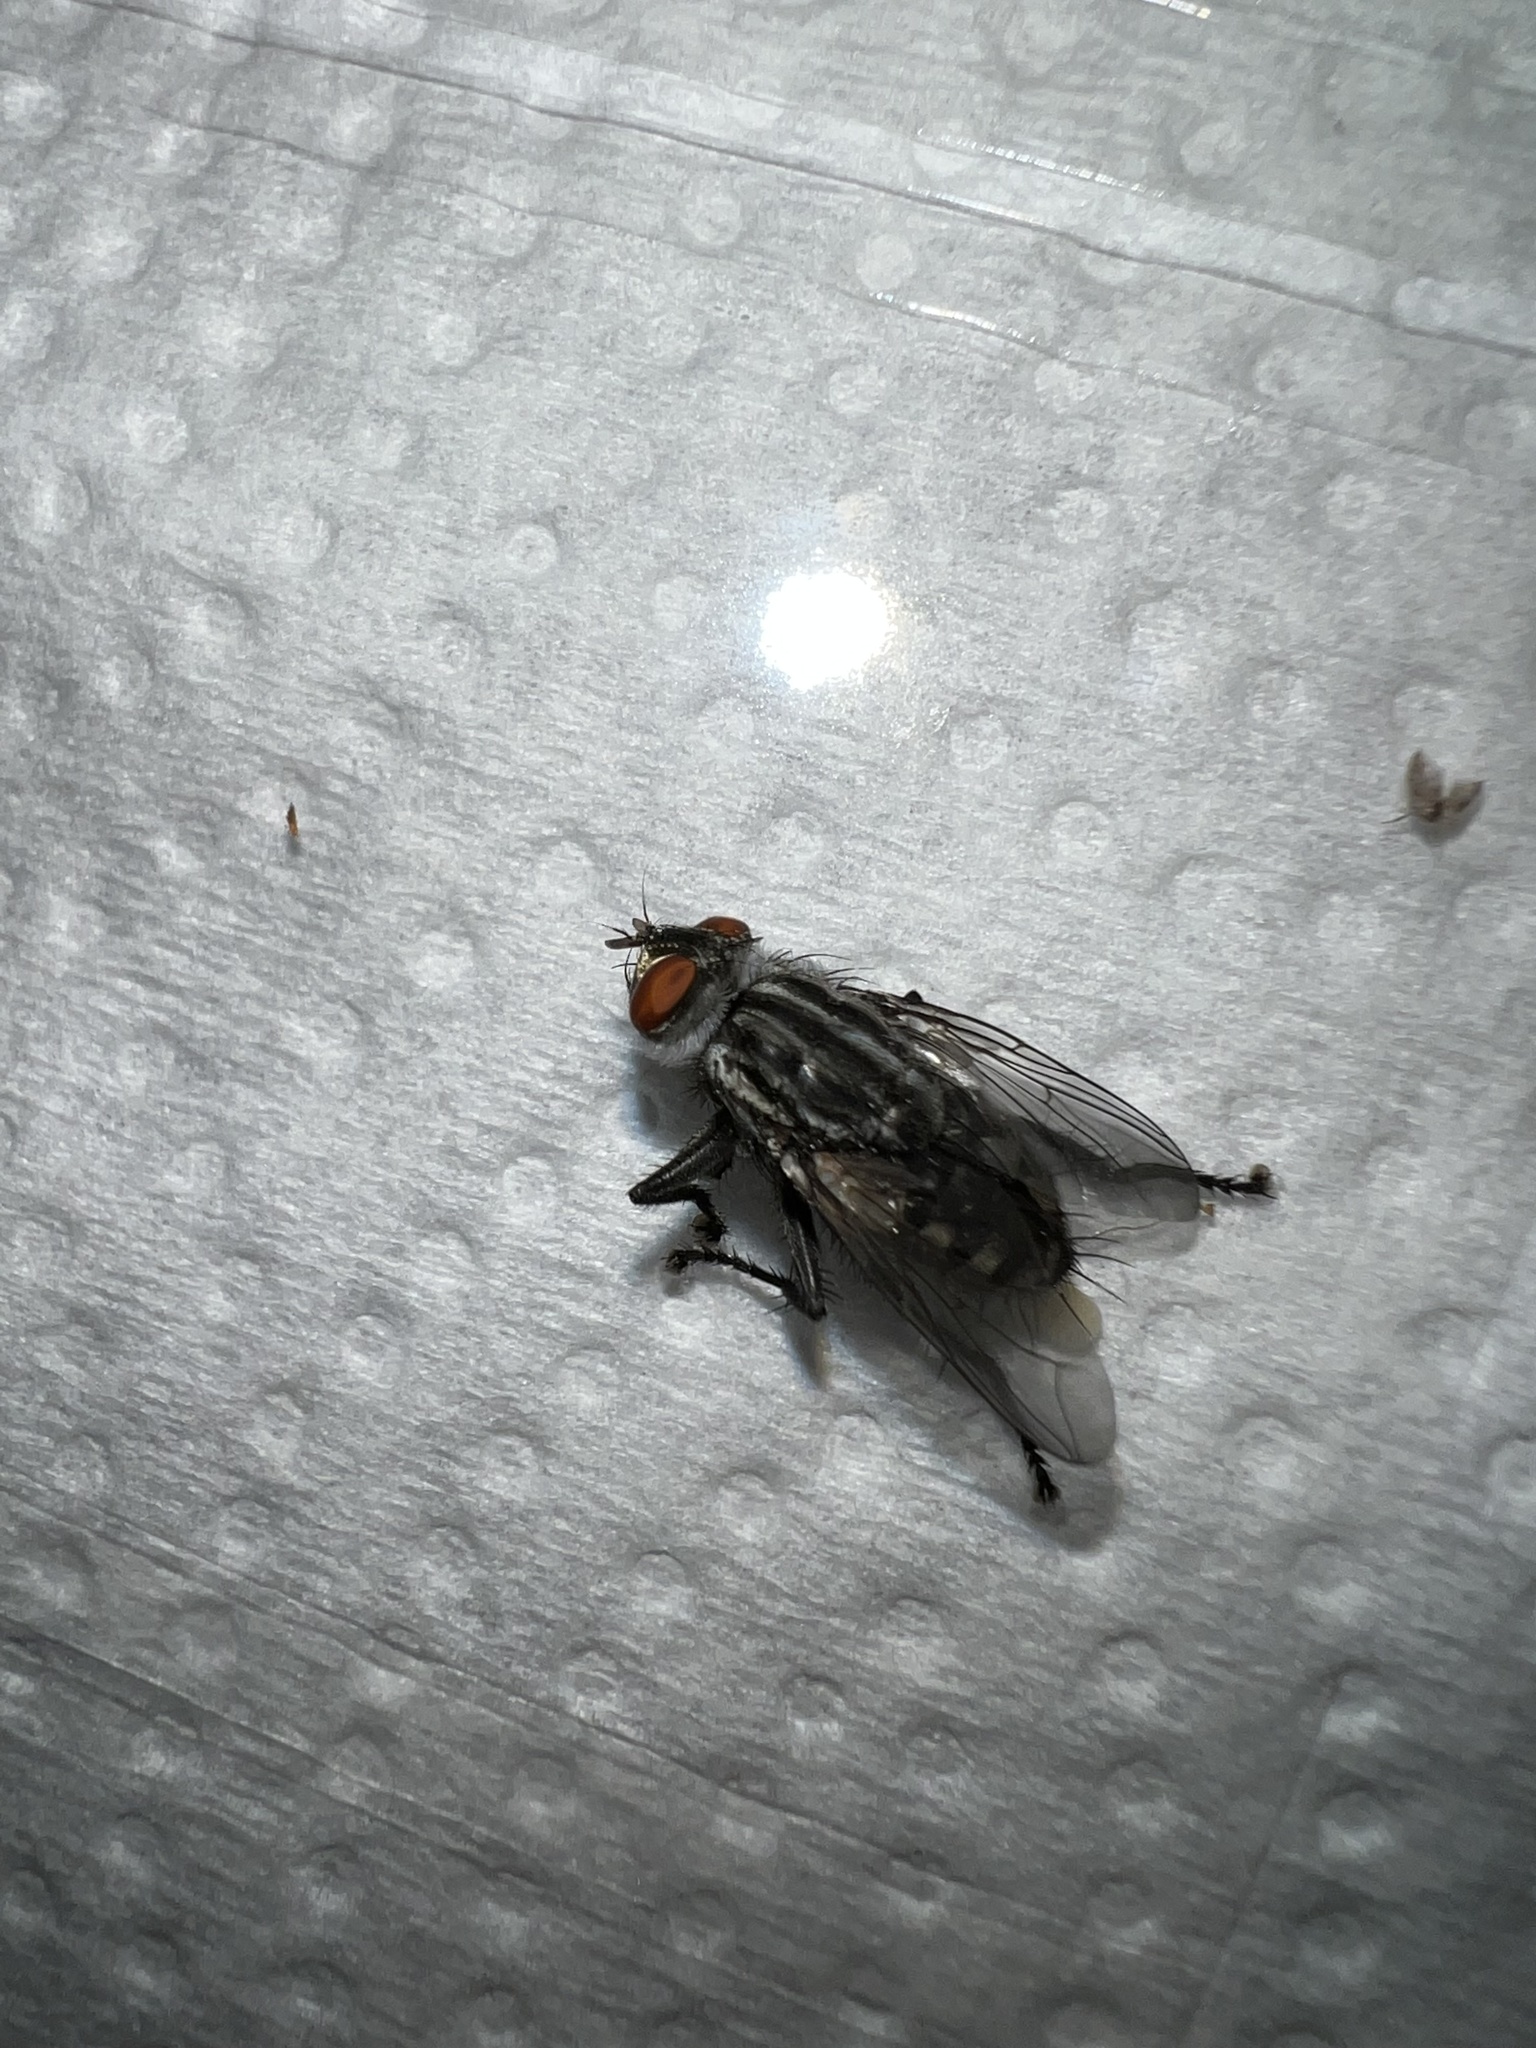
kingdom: Animalia
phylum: Arthropoda
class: Insecta
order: Diptera
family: Sarcophagidae
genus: Sarcophaga
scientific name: Sarcophaga
